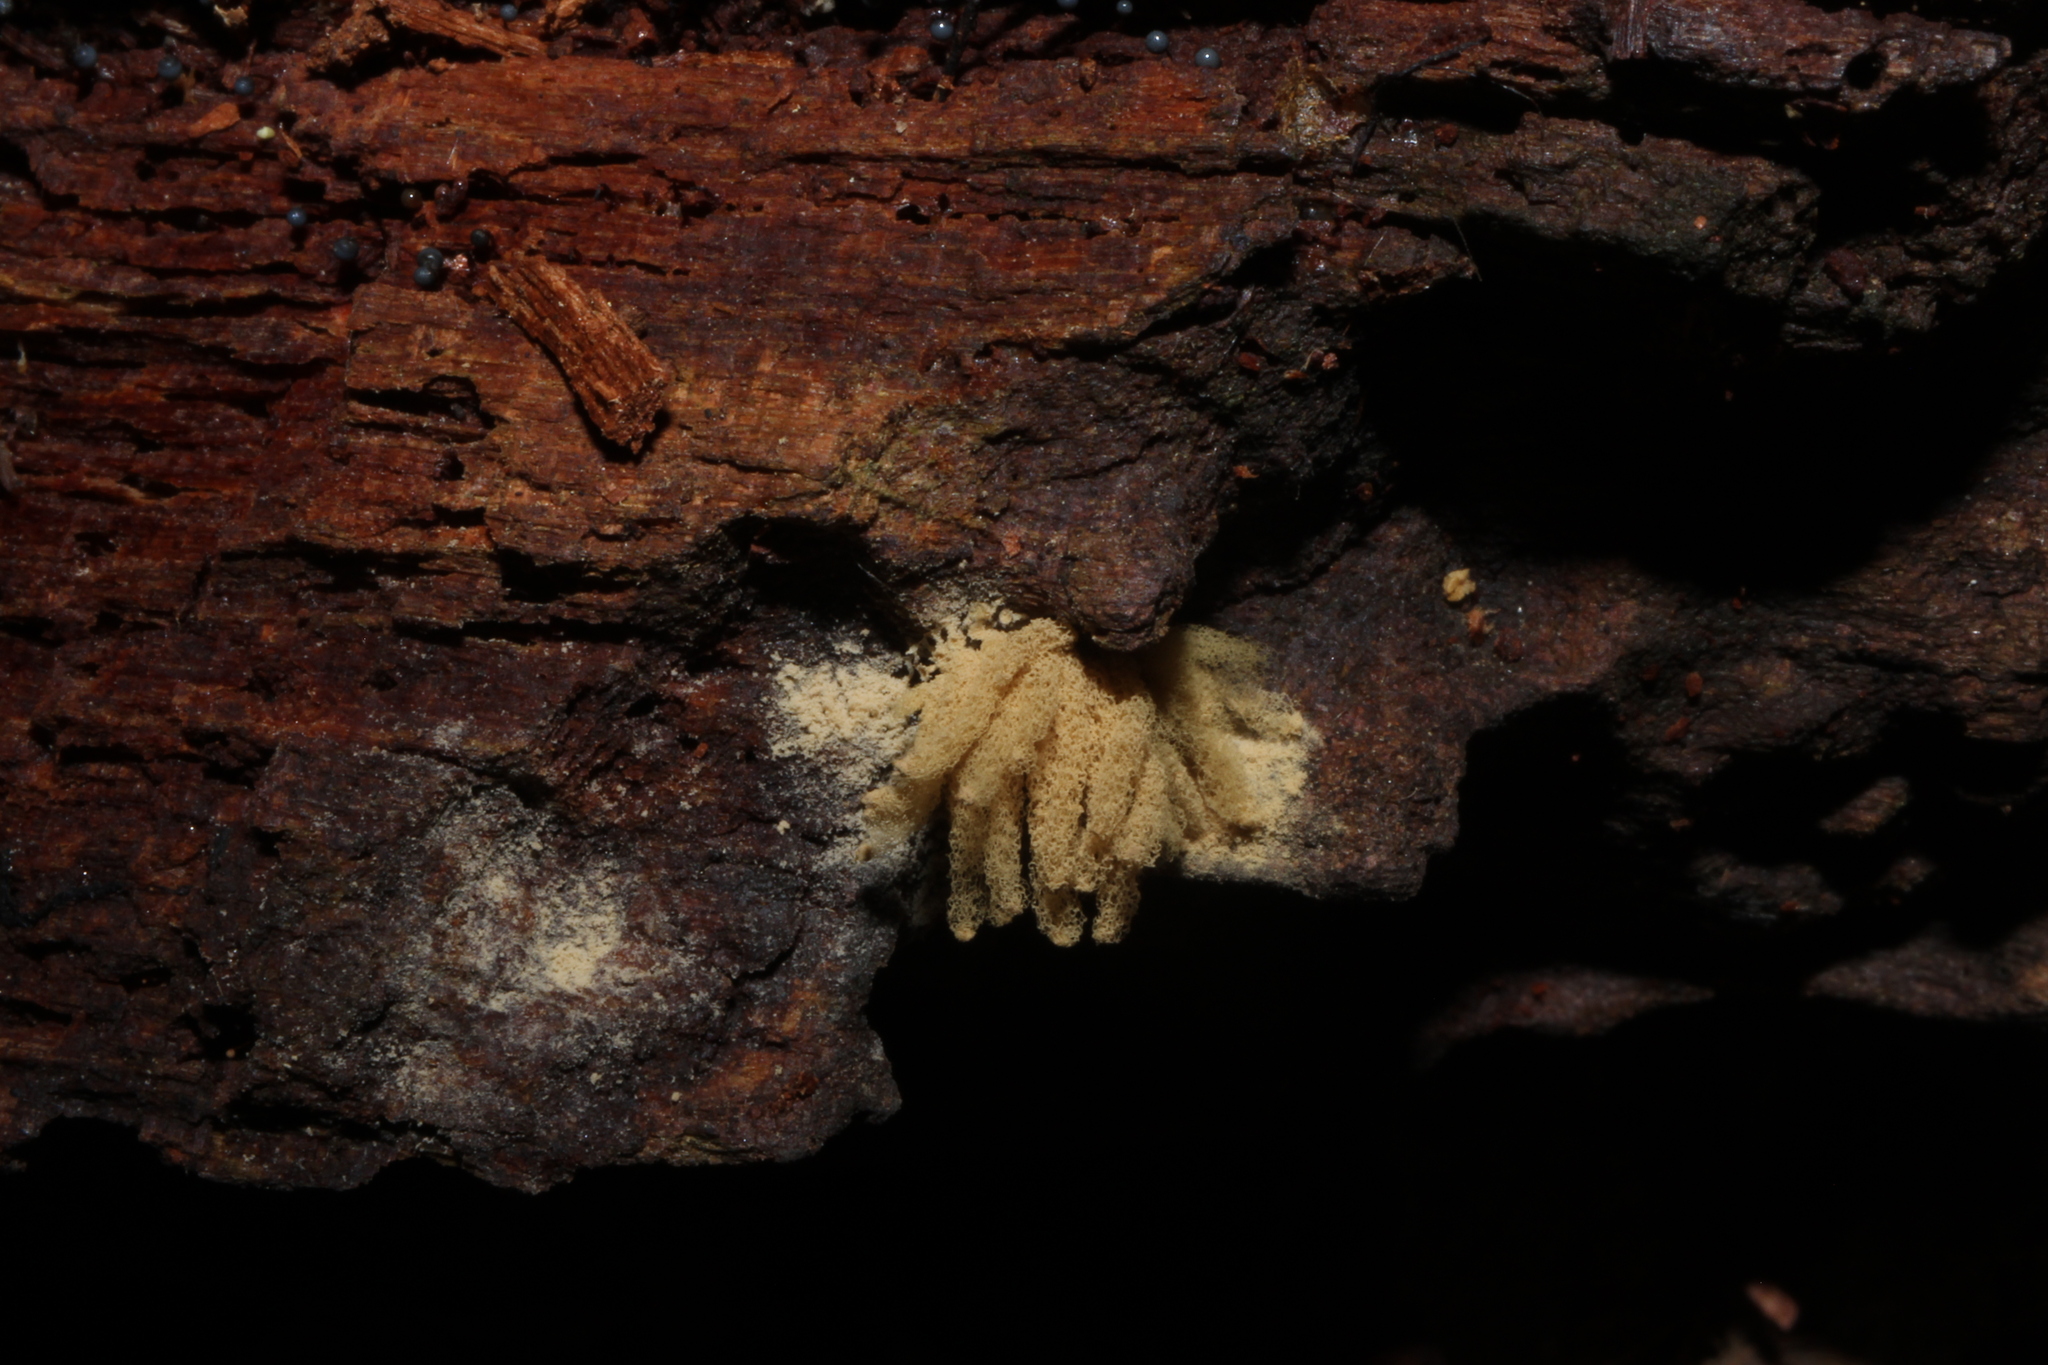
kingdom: Protozoa
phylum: Mycetozoa
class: Myxomycetes
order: Trichiales
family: Arcyriaceae
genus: Arcyria
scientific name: Arcyria obvelata
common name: Yellow carnival candy slime
